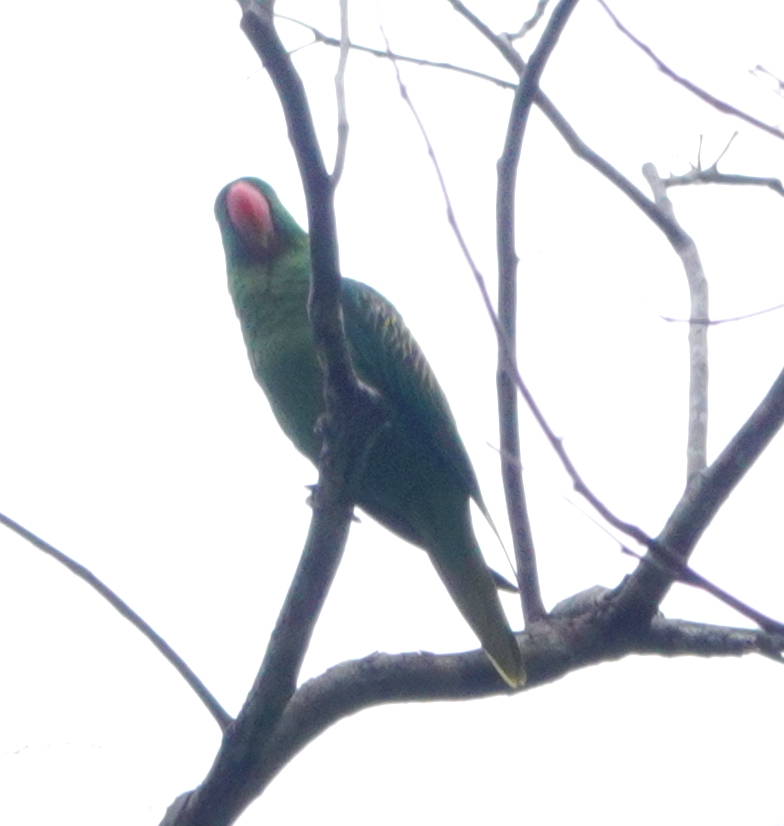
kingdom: Animalia
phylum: Chordata
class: Aves
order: Psittaciformes
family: Psittacidae
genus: Tanygnathus
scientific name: Tanygnathus megalorynchos
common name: Great-billed parrot
